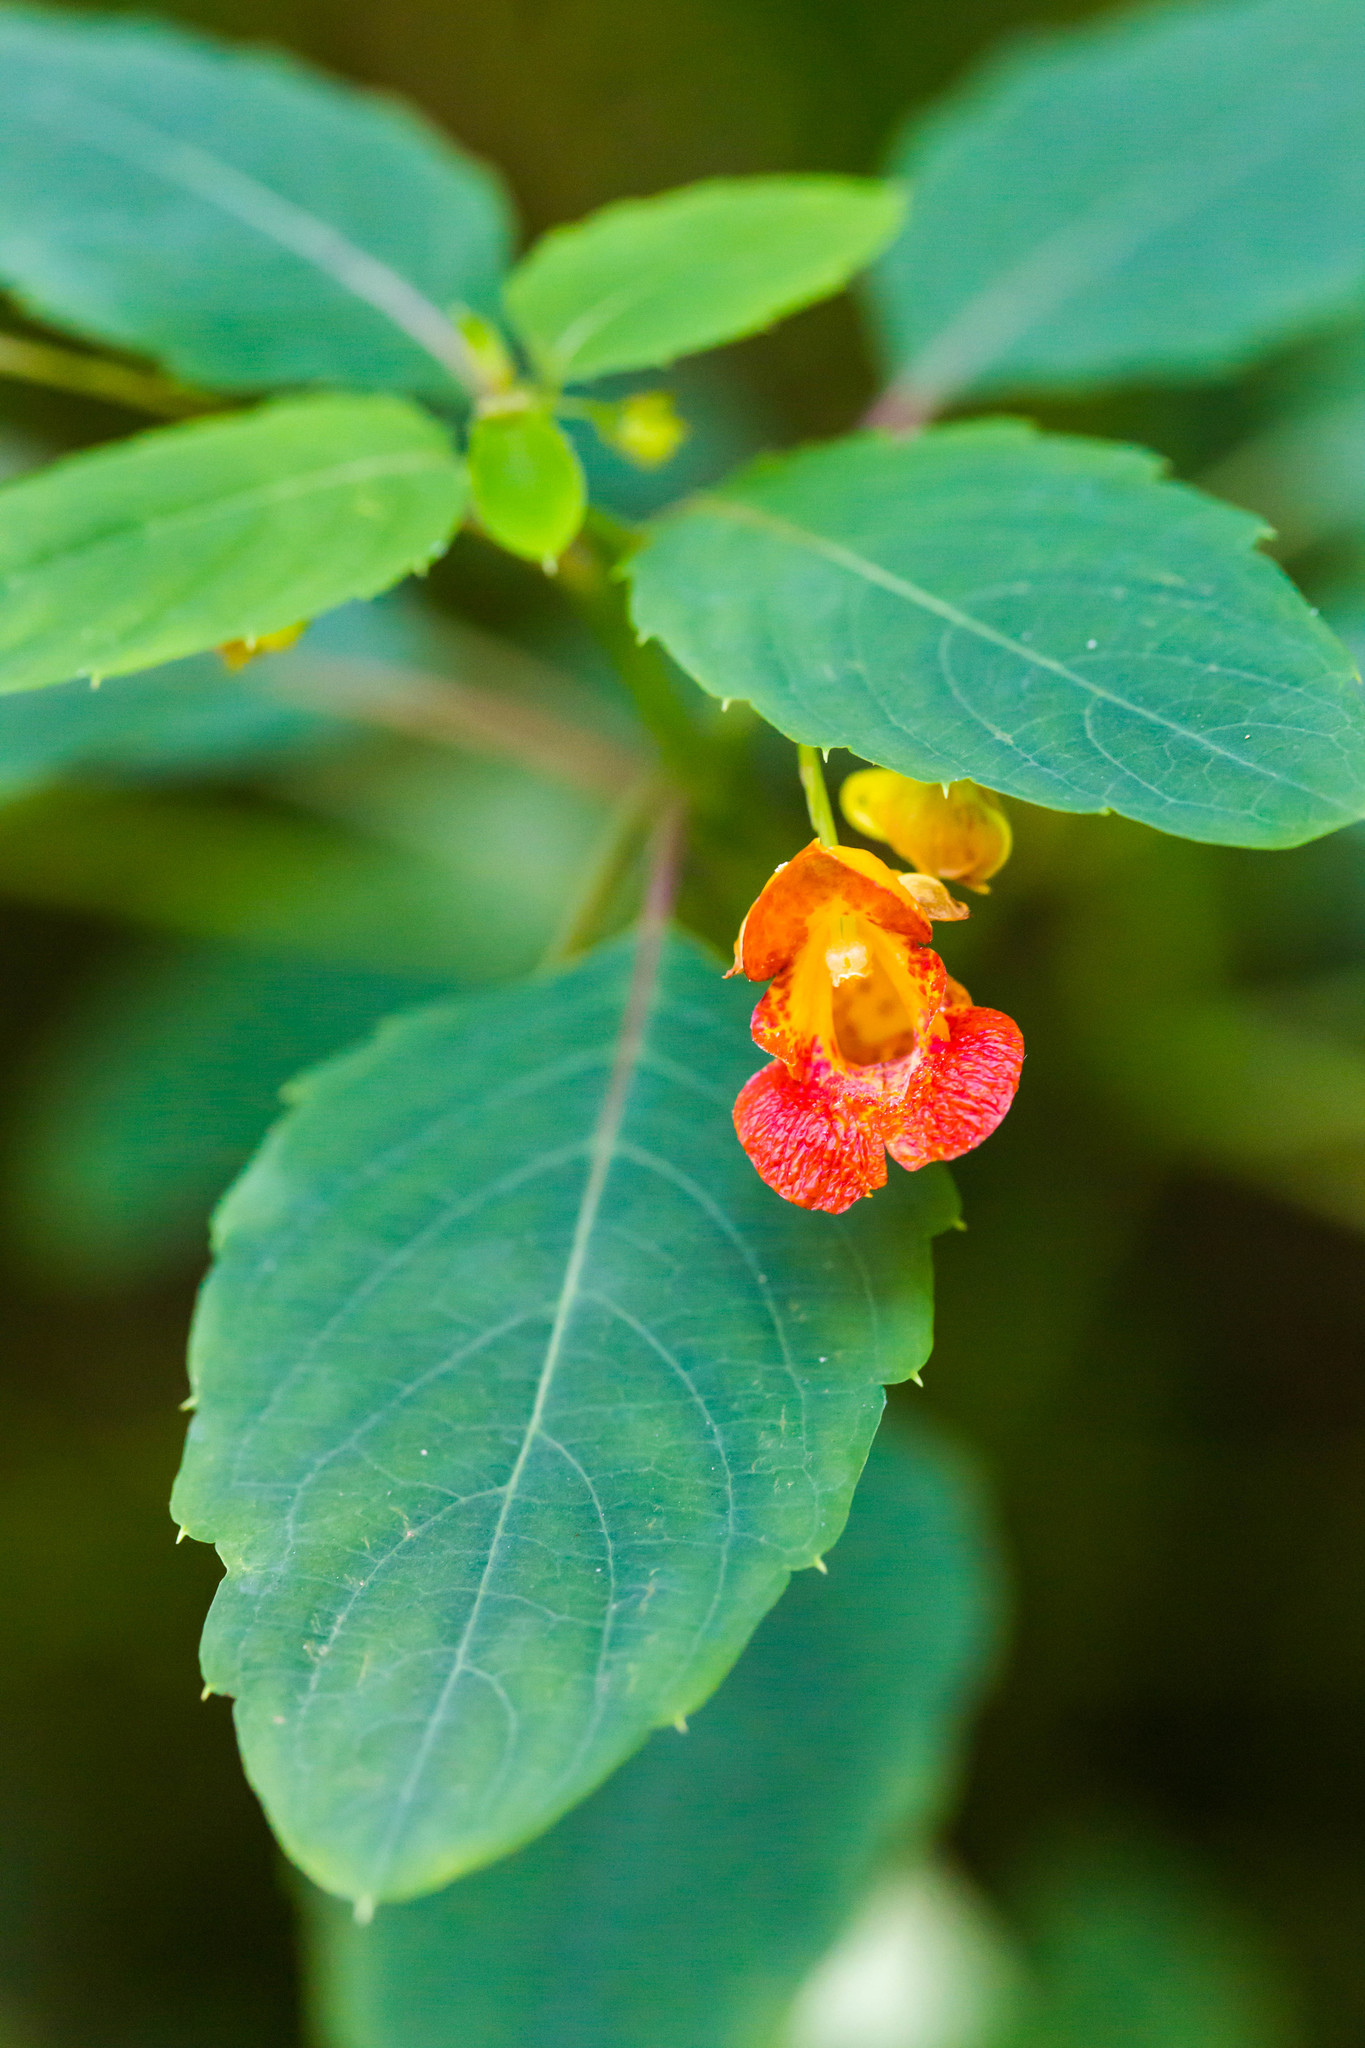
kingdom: Plantae
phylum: Tracheophyta
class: Magnoliopsida
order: Ericales
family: Balsaminaceae
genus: Impatiens
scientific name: Impatiens capensis
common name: Orange balsam
